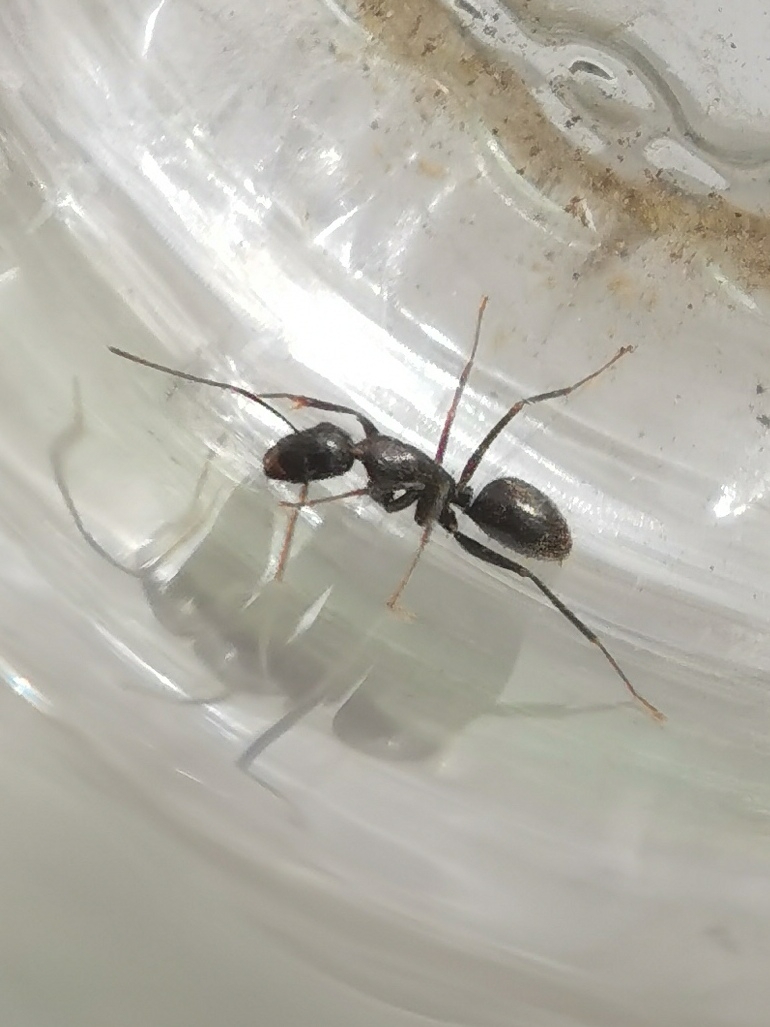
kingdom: Animalia
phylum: Arthropoda
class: Insecta
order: Hymenoptera
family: Formicidae
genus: Camponotus
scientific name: Camponotus aethiops
